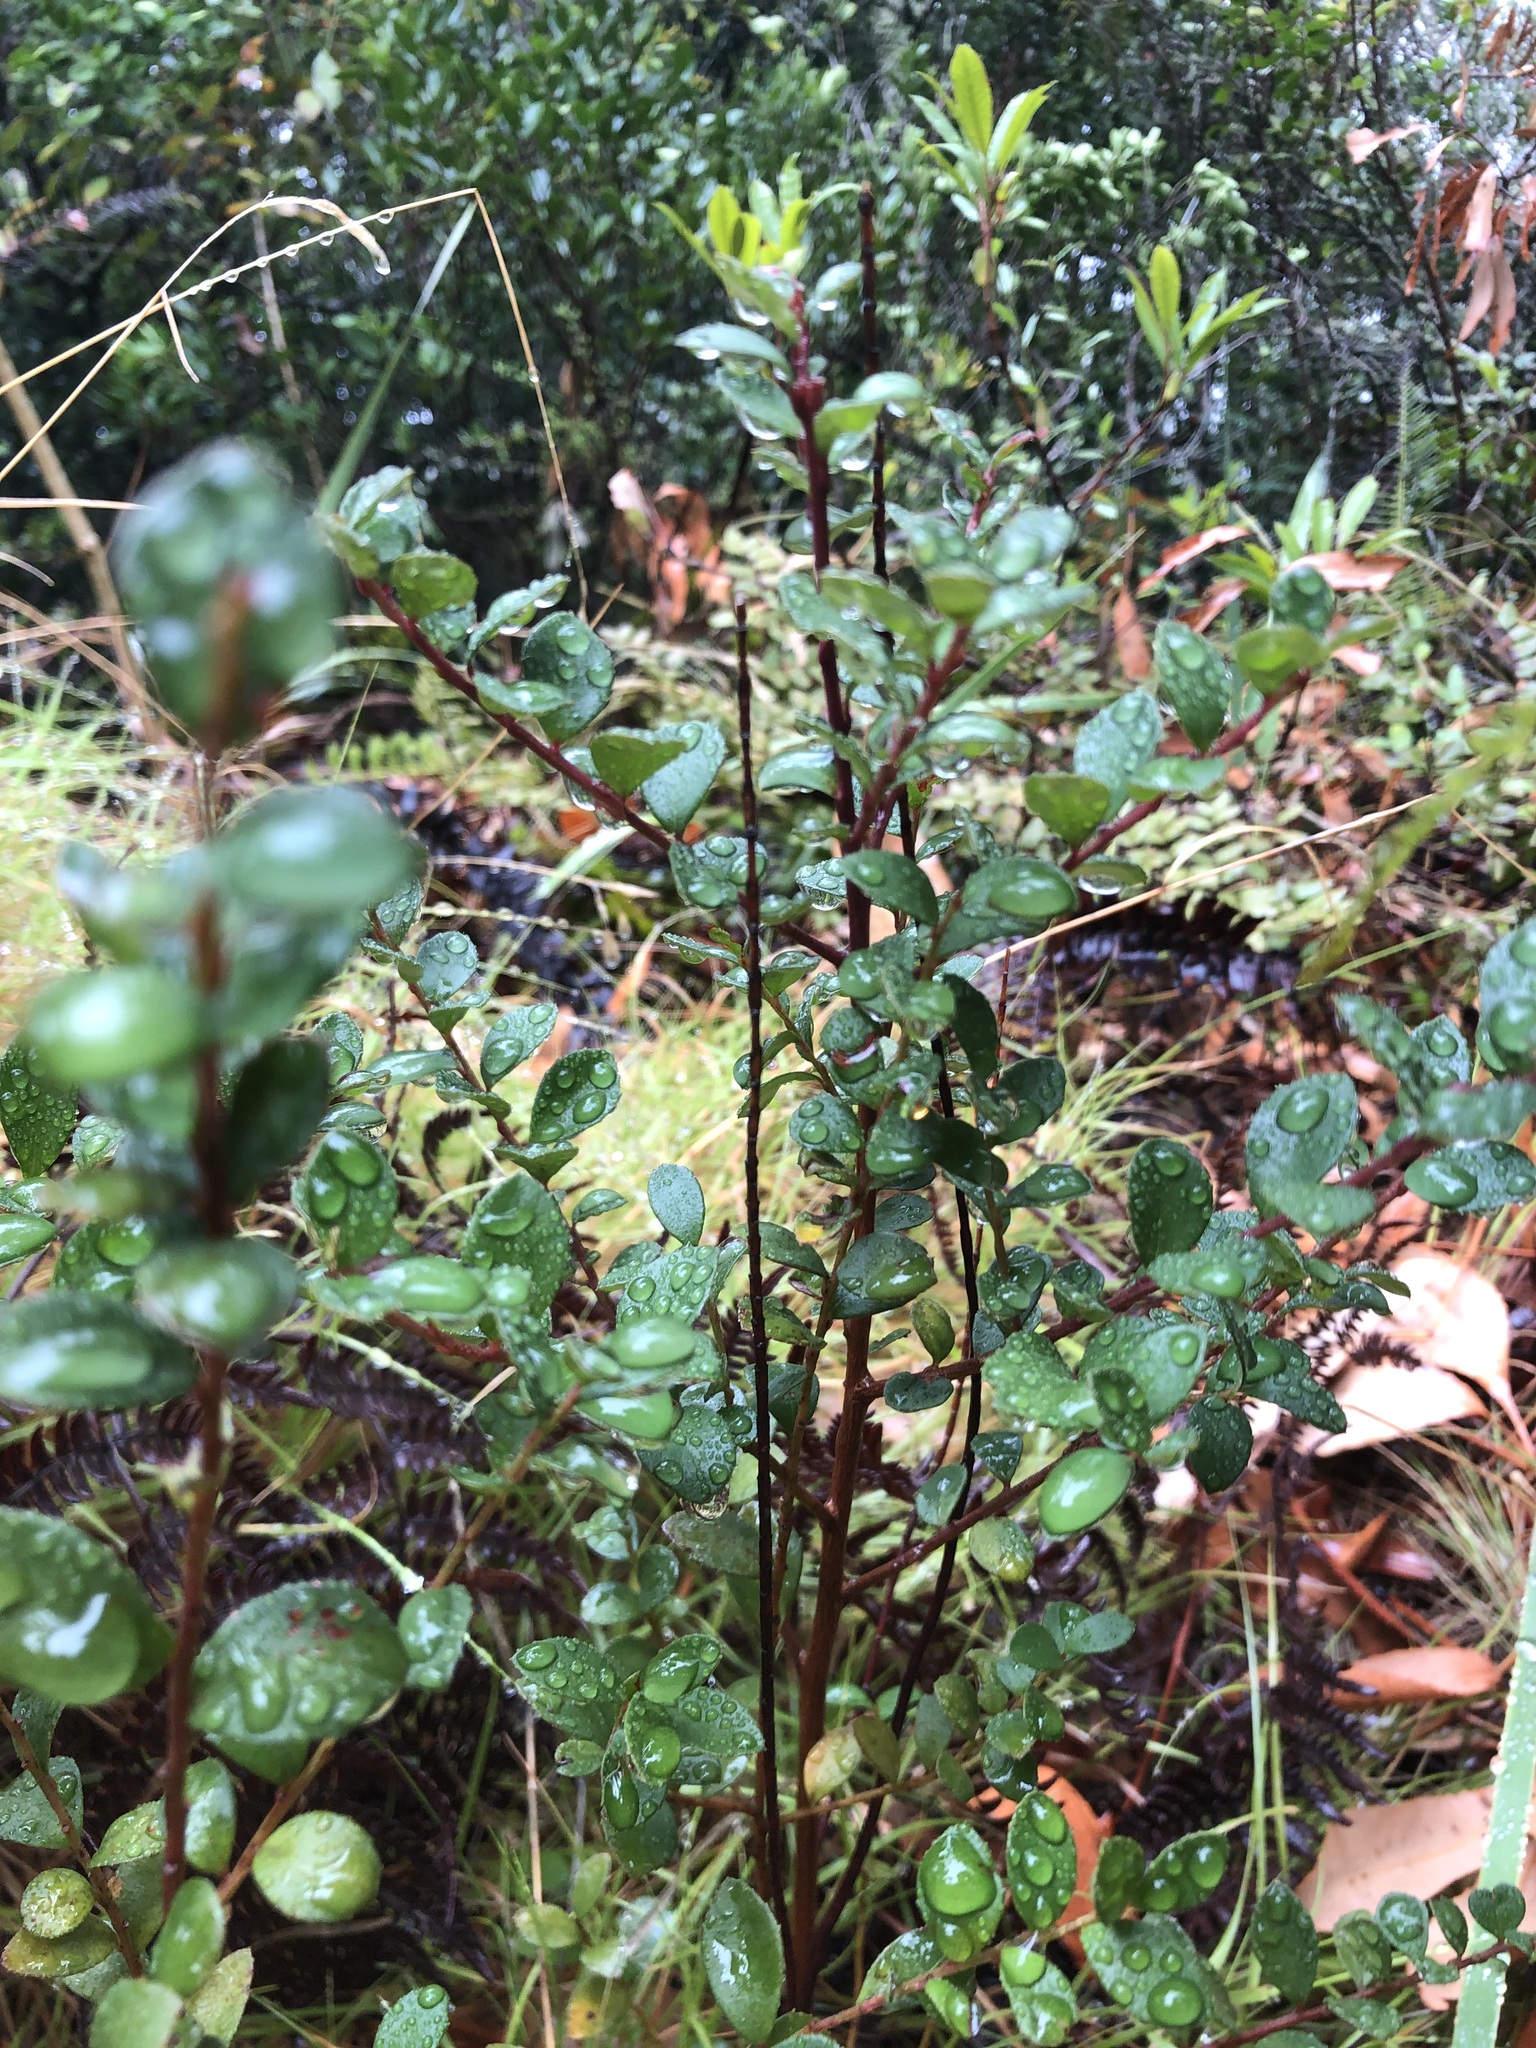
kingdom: Plantae
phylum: Tracheophyta
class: Magnoliopsida
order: Ericales
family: Primulaceae
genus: Myrsine
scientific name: Myrsine africana
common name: African-boxwood
